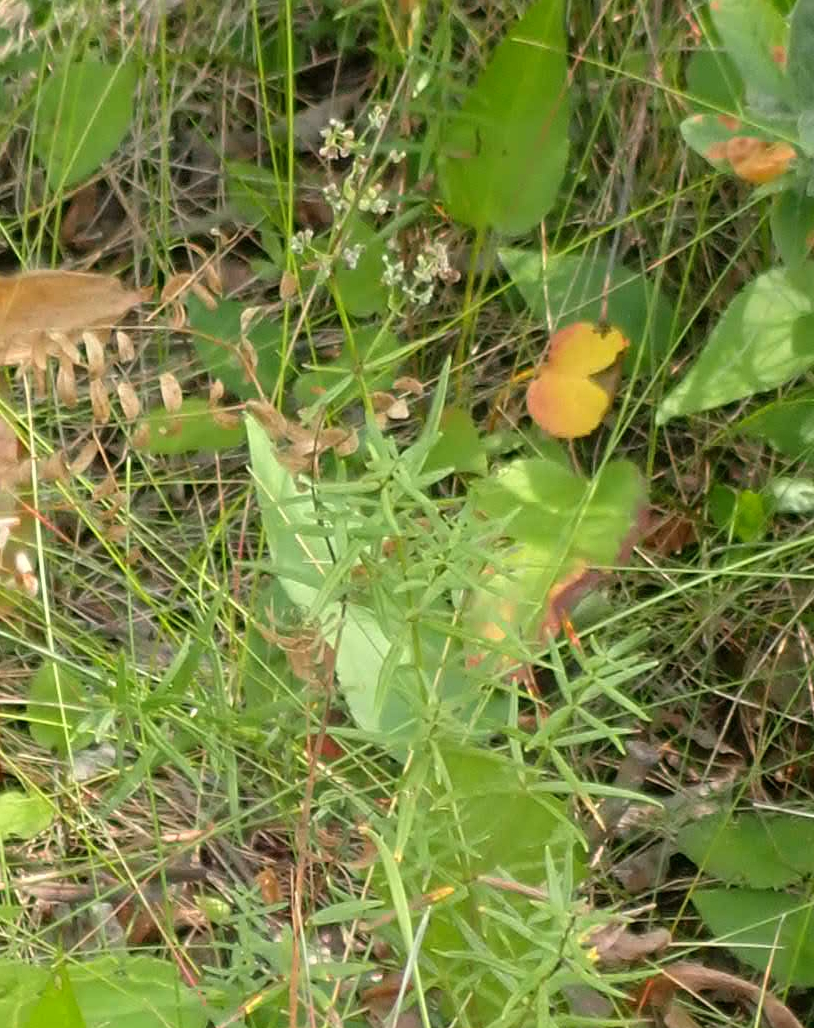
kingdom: Plantae
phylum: Tracheophyta
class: Magnoliopsida
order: Gentianales
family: Rubiaceae
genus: Galium
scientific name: Galium boreale
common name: Northern bedstraw
